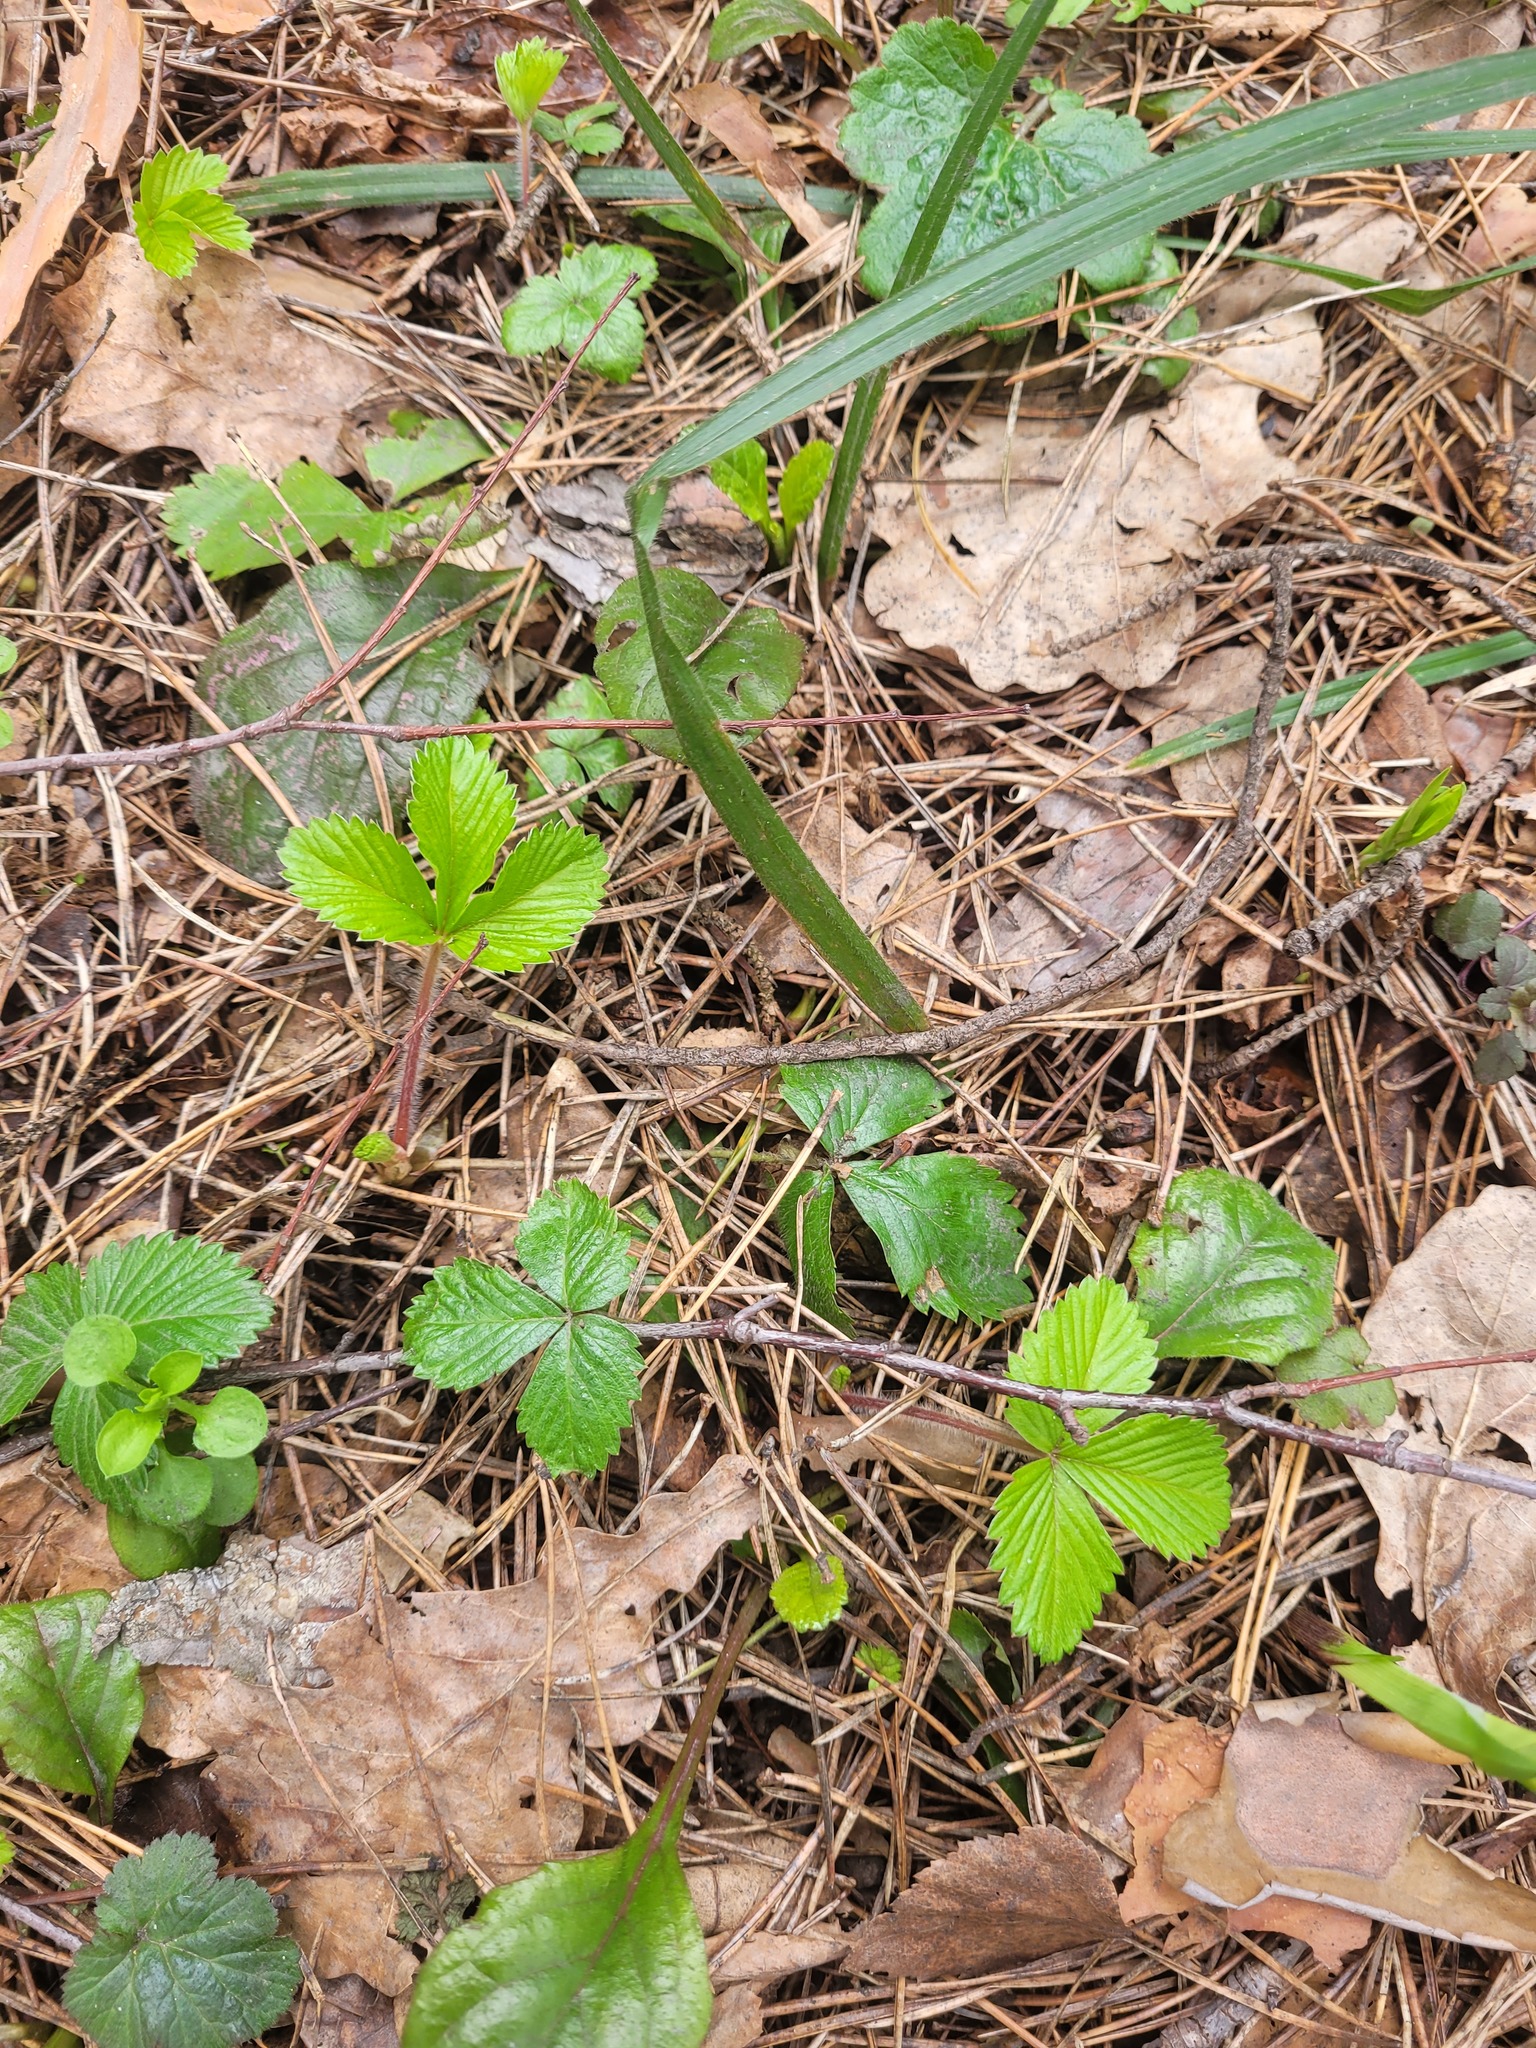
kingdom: Plantae
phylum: Tracheophyta
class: Magnoliopsida
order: Rosales
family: Rosaceae
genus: Fragaria
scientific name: Fragaria vesca
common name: Wild strawberry
